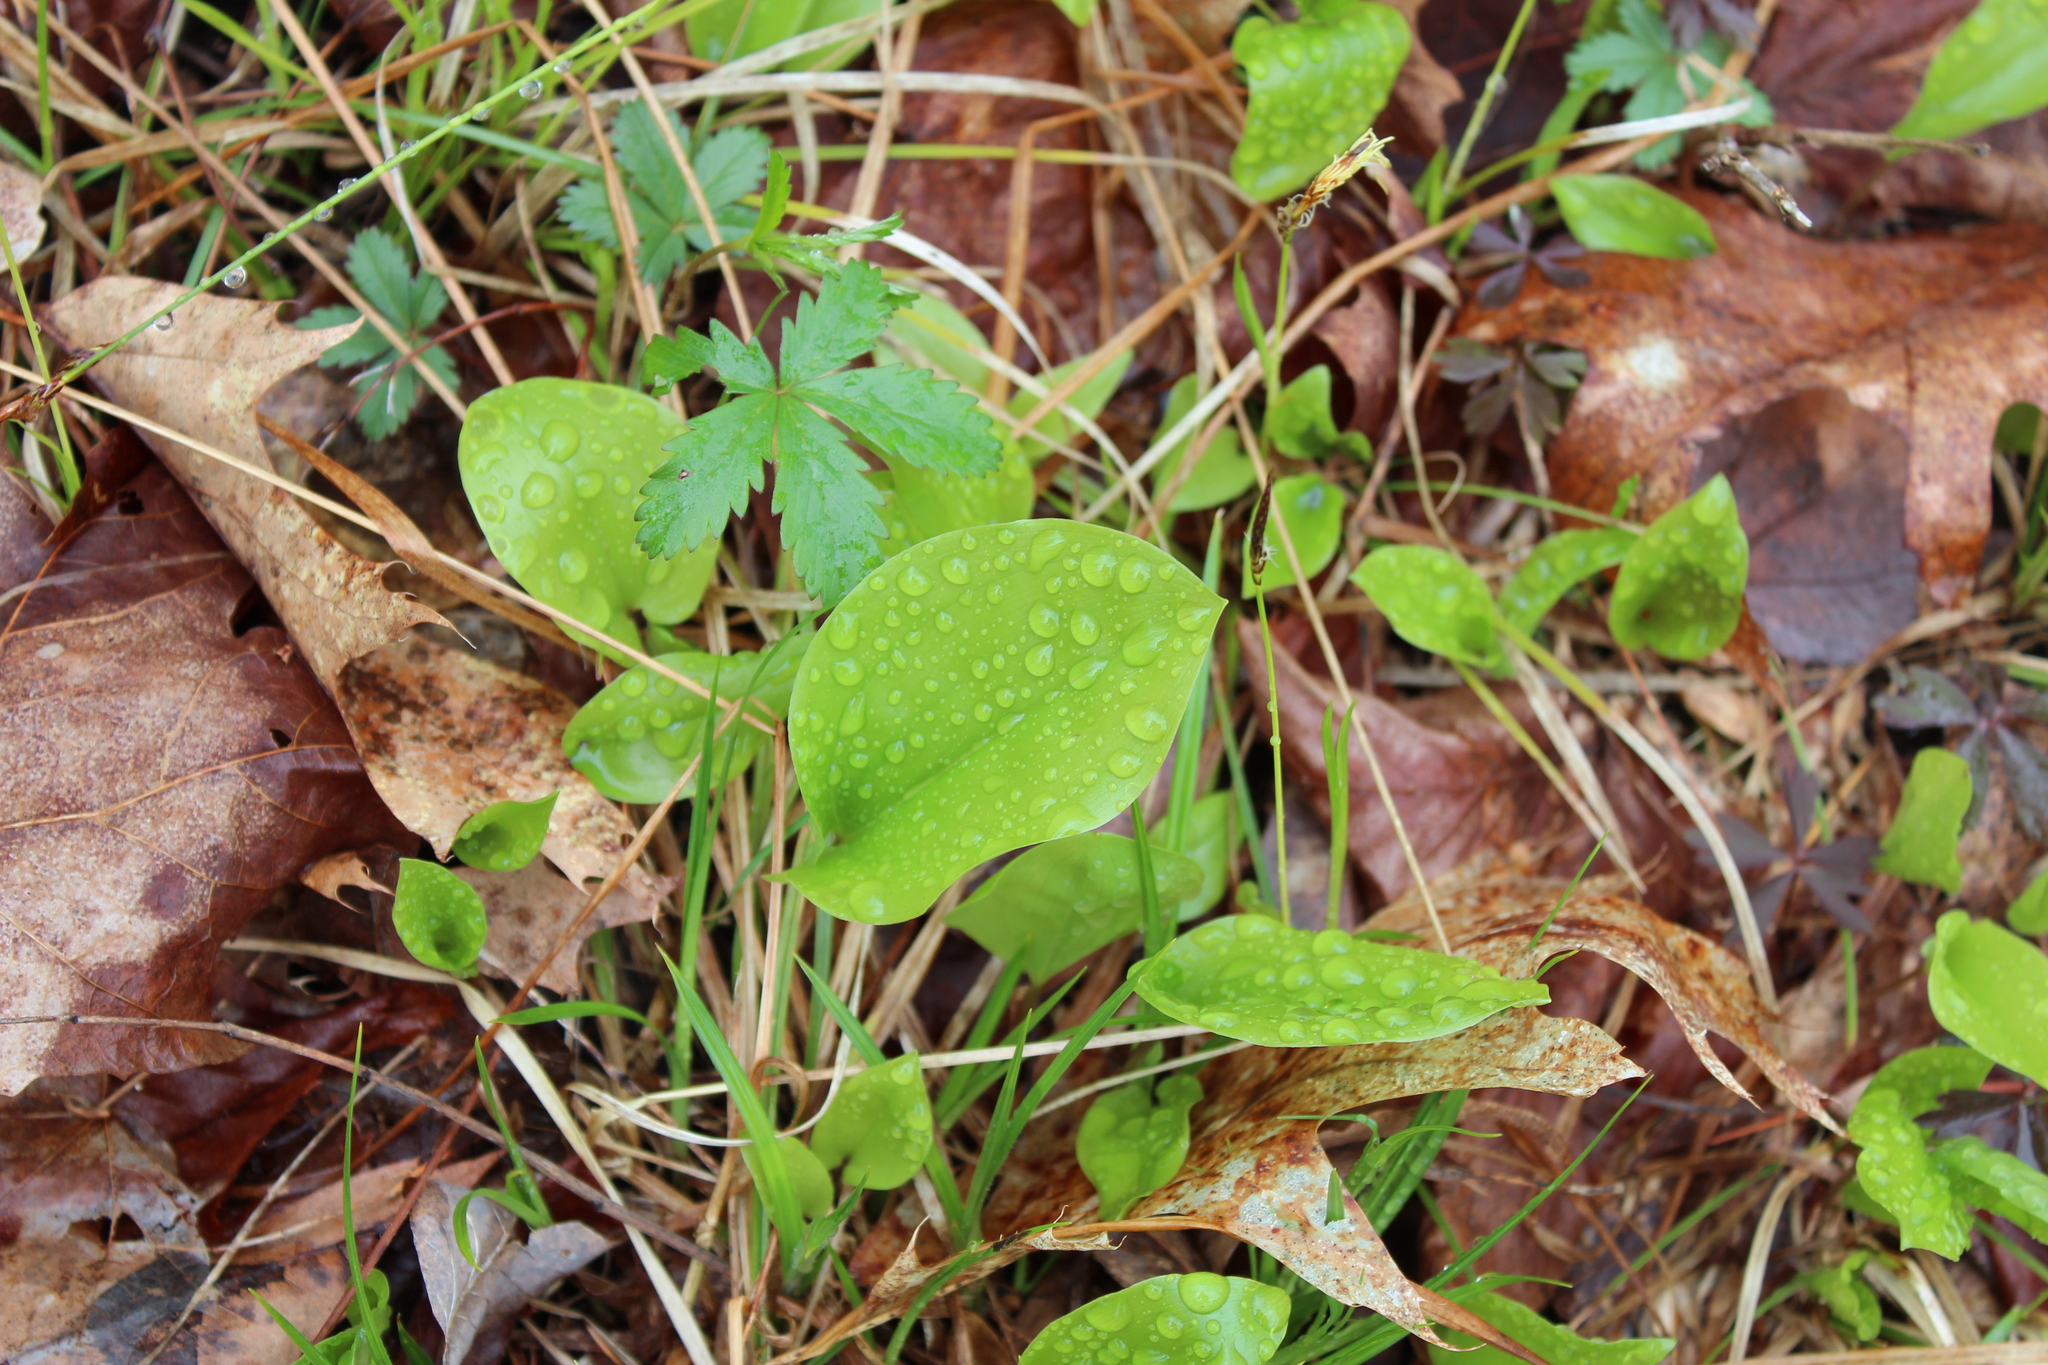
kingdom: Plantae
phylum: Tracheophyta
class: Liliopsida
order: Asparagales
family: Asparagaceae
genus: Maianthemum
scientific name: Maianthemum canadense
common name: False lily-of-the-valley
